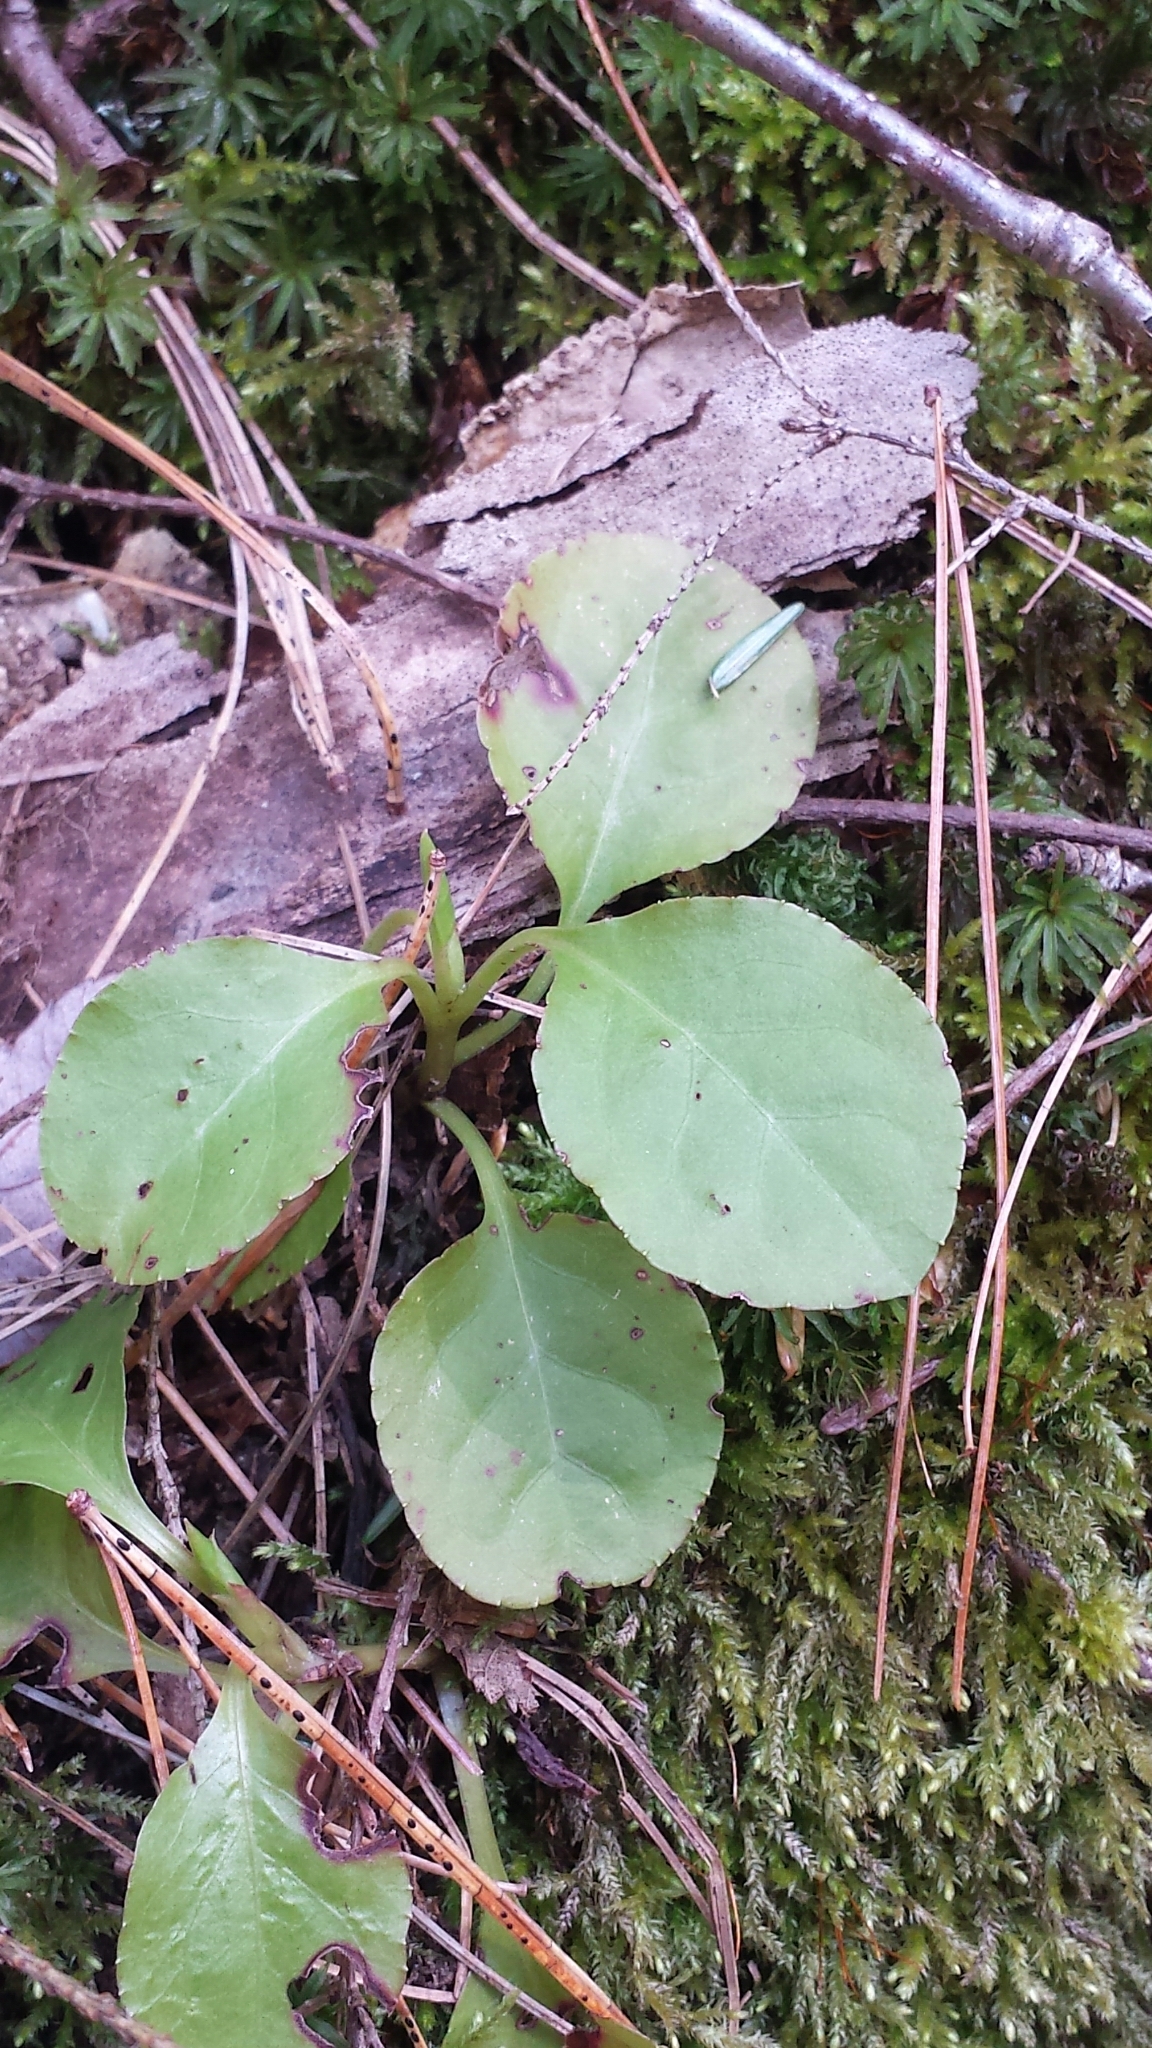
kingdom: Plantae
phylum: Tracheophyta
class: Magnoliopsida
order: Ericales
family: Ericaceae
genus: Pyrola
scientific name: Pyrola elliptica
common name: Shinleaf
